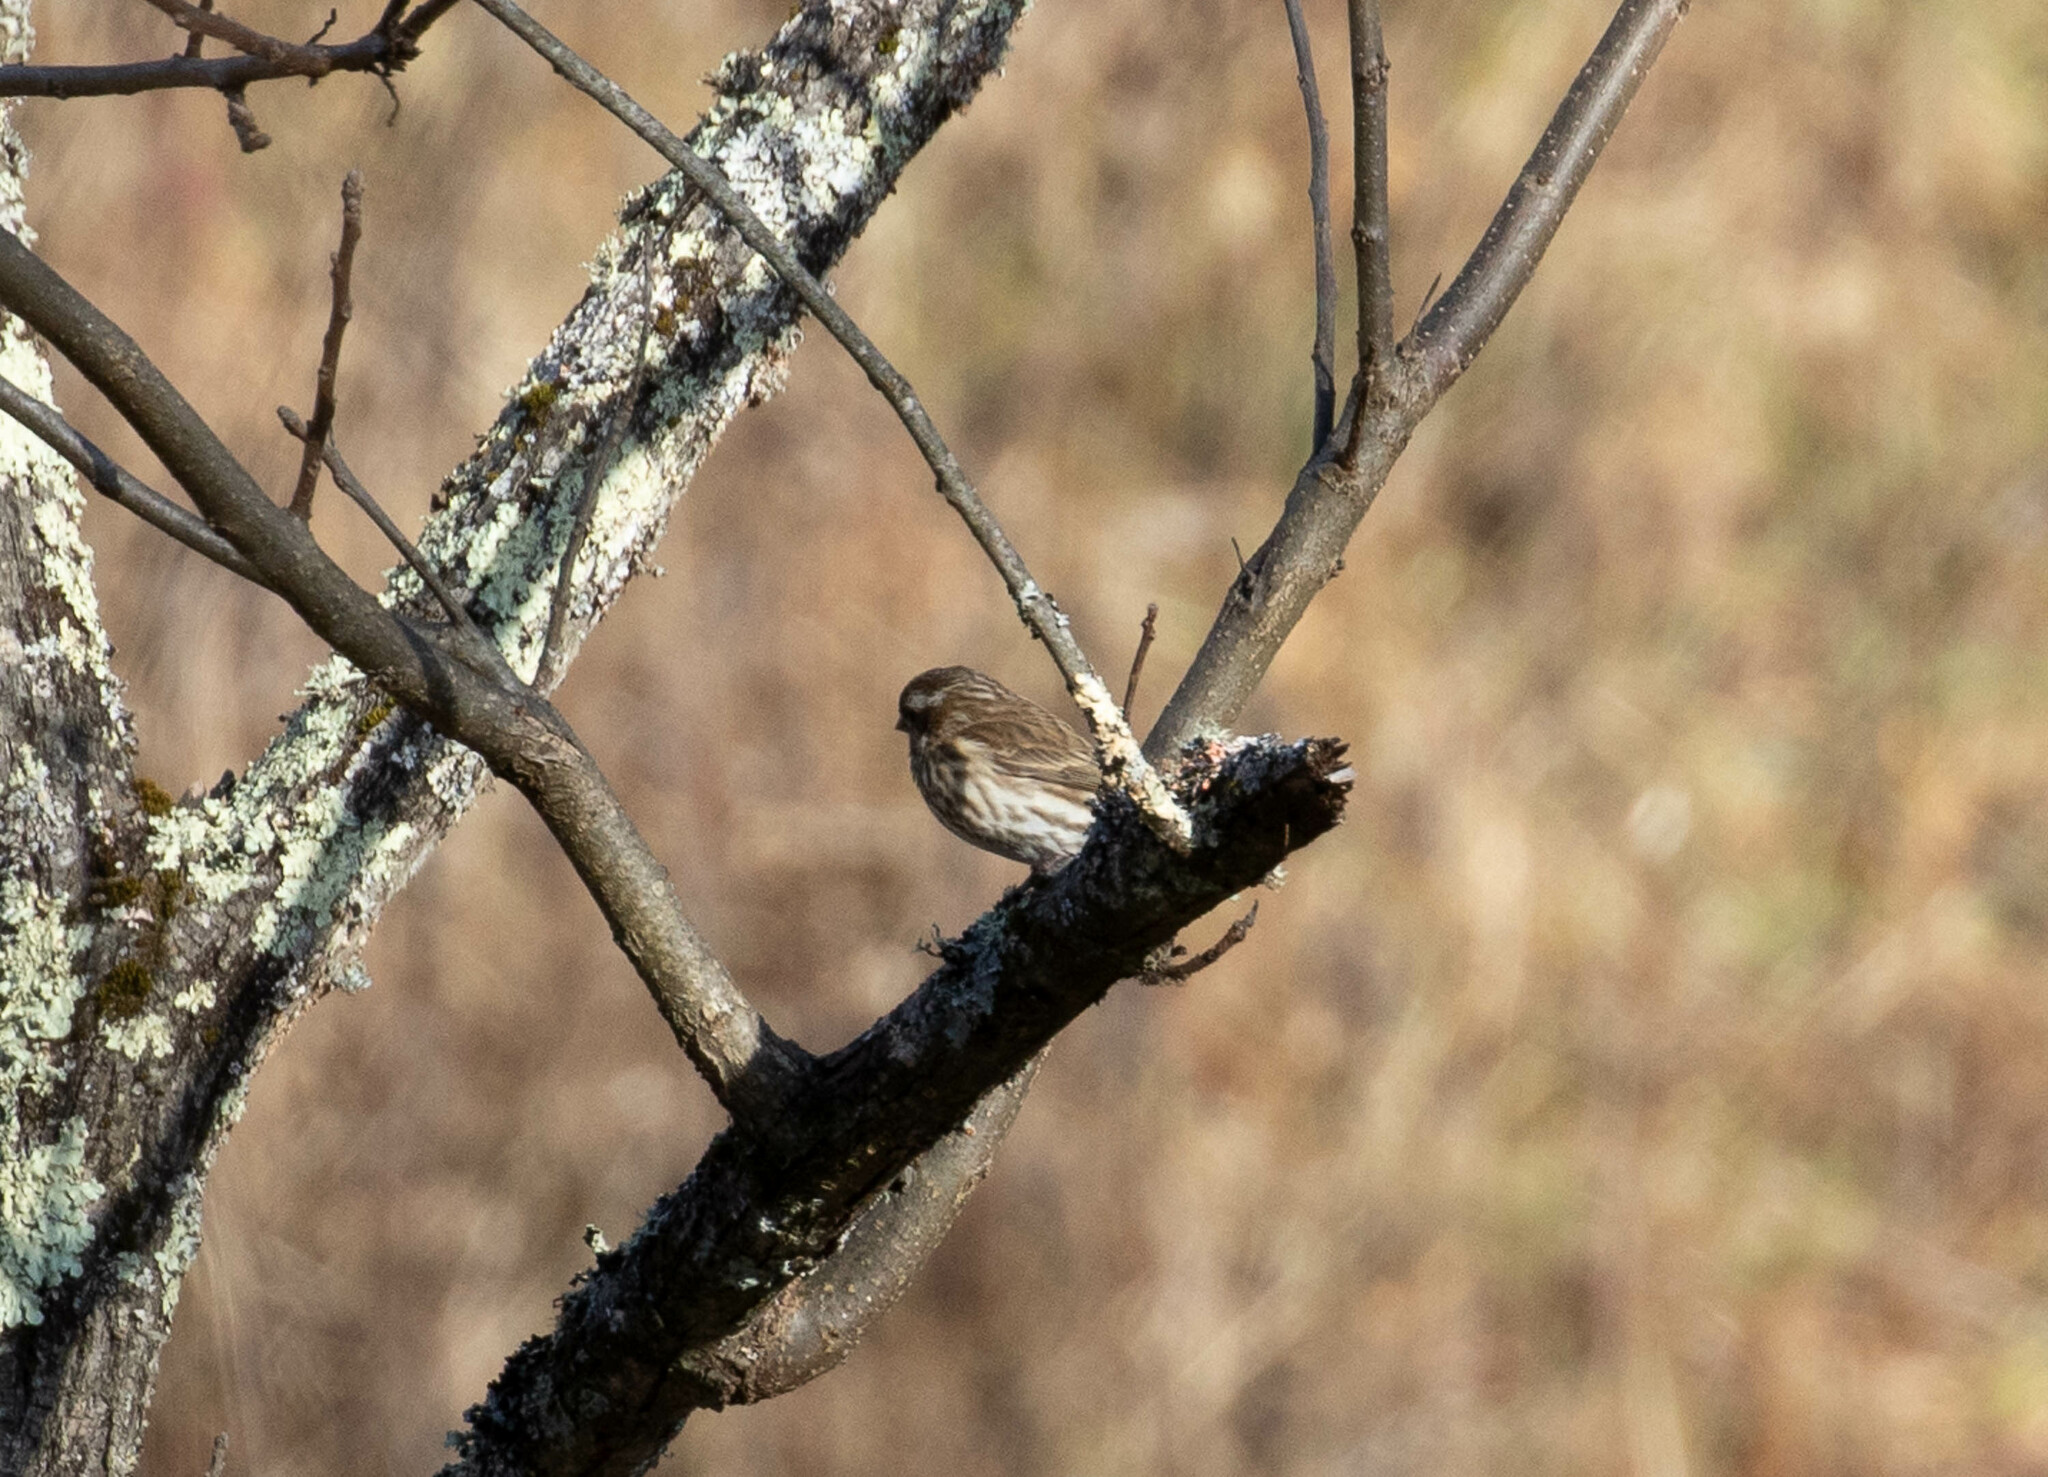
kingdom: Animalia
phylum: Chordata
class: Aves
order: Passeriformes
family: Fringillidae
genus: Haemorhous
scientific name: Haemorhous purpureus
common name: Purple finch
